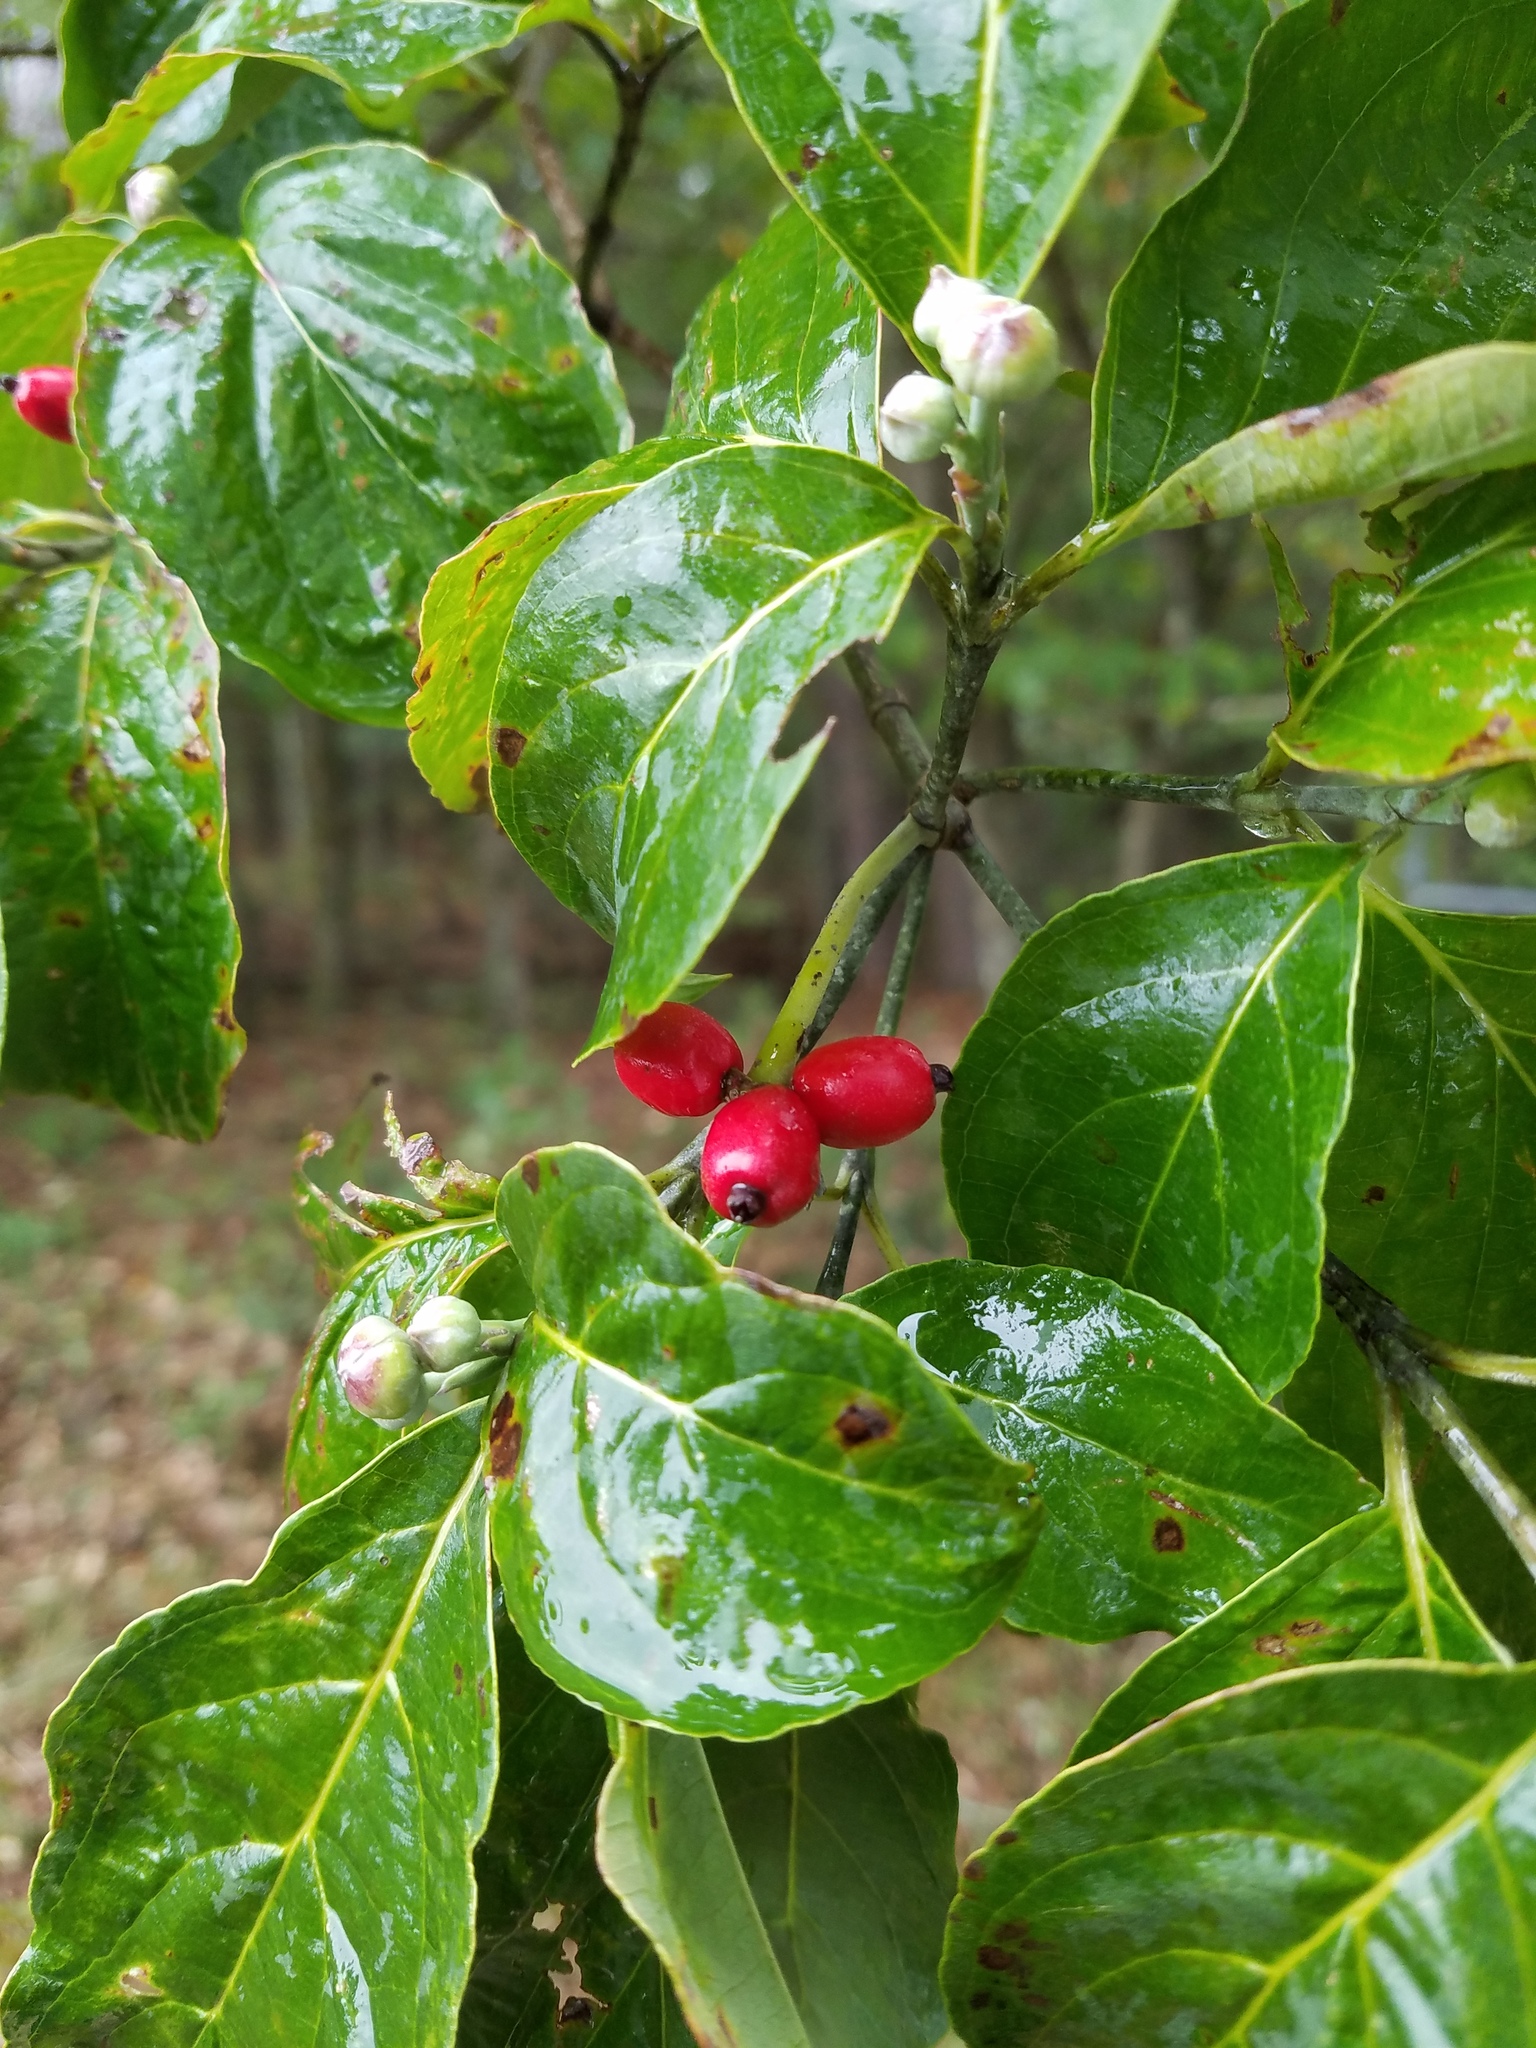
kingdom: Plantae
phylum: Tracheophyta
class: Magnoliopsida
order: Cornales
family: Cornaceae
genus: Cornus
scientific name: Cornus florida
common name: Flowering dogwood
